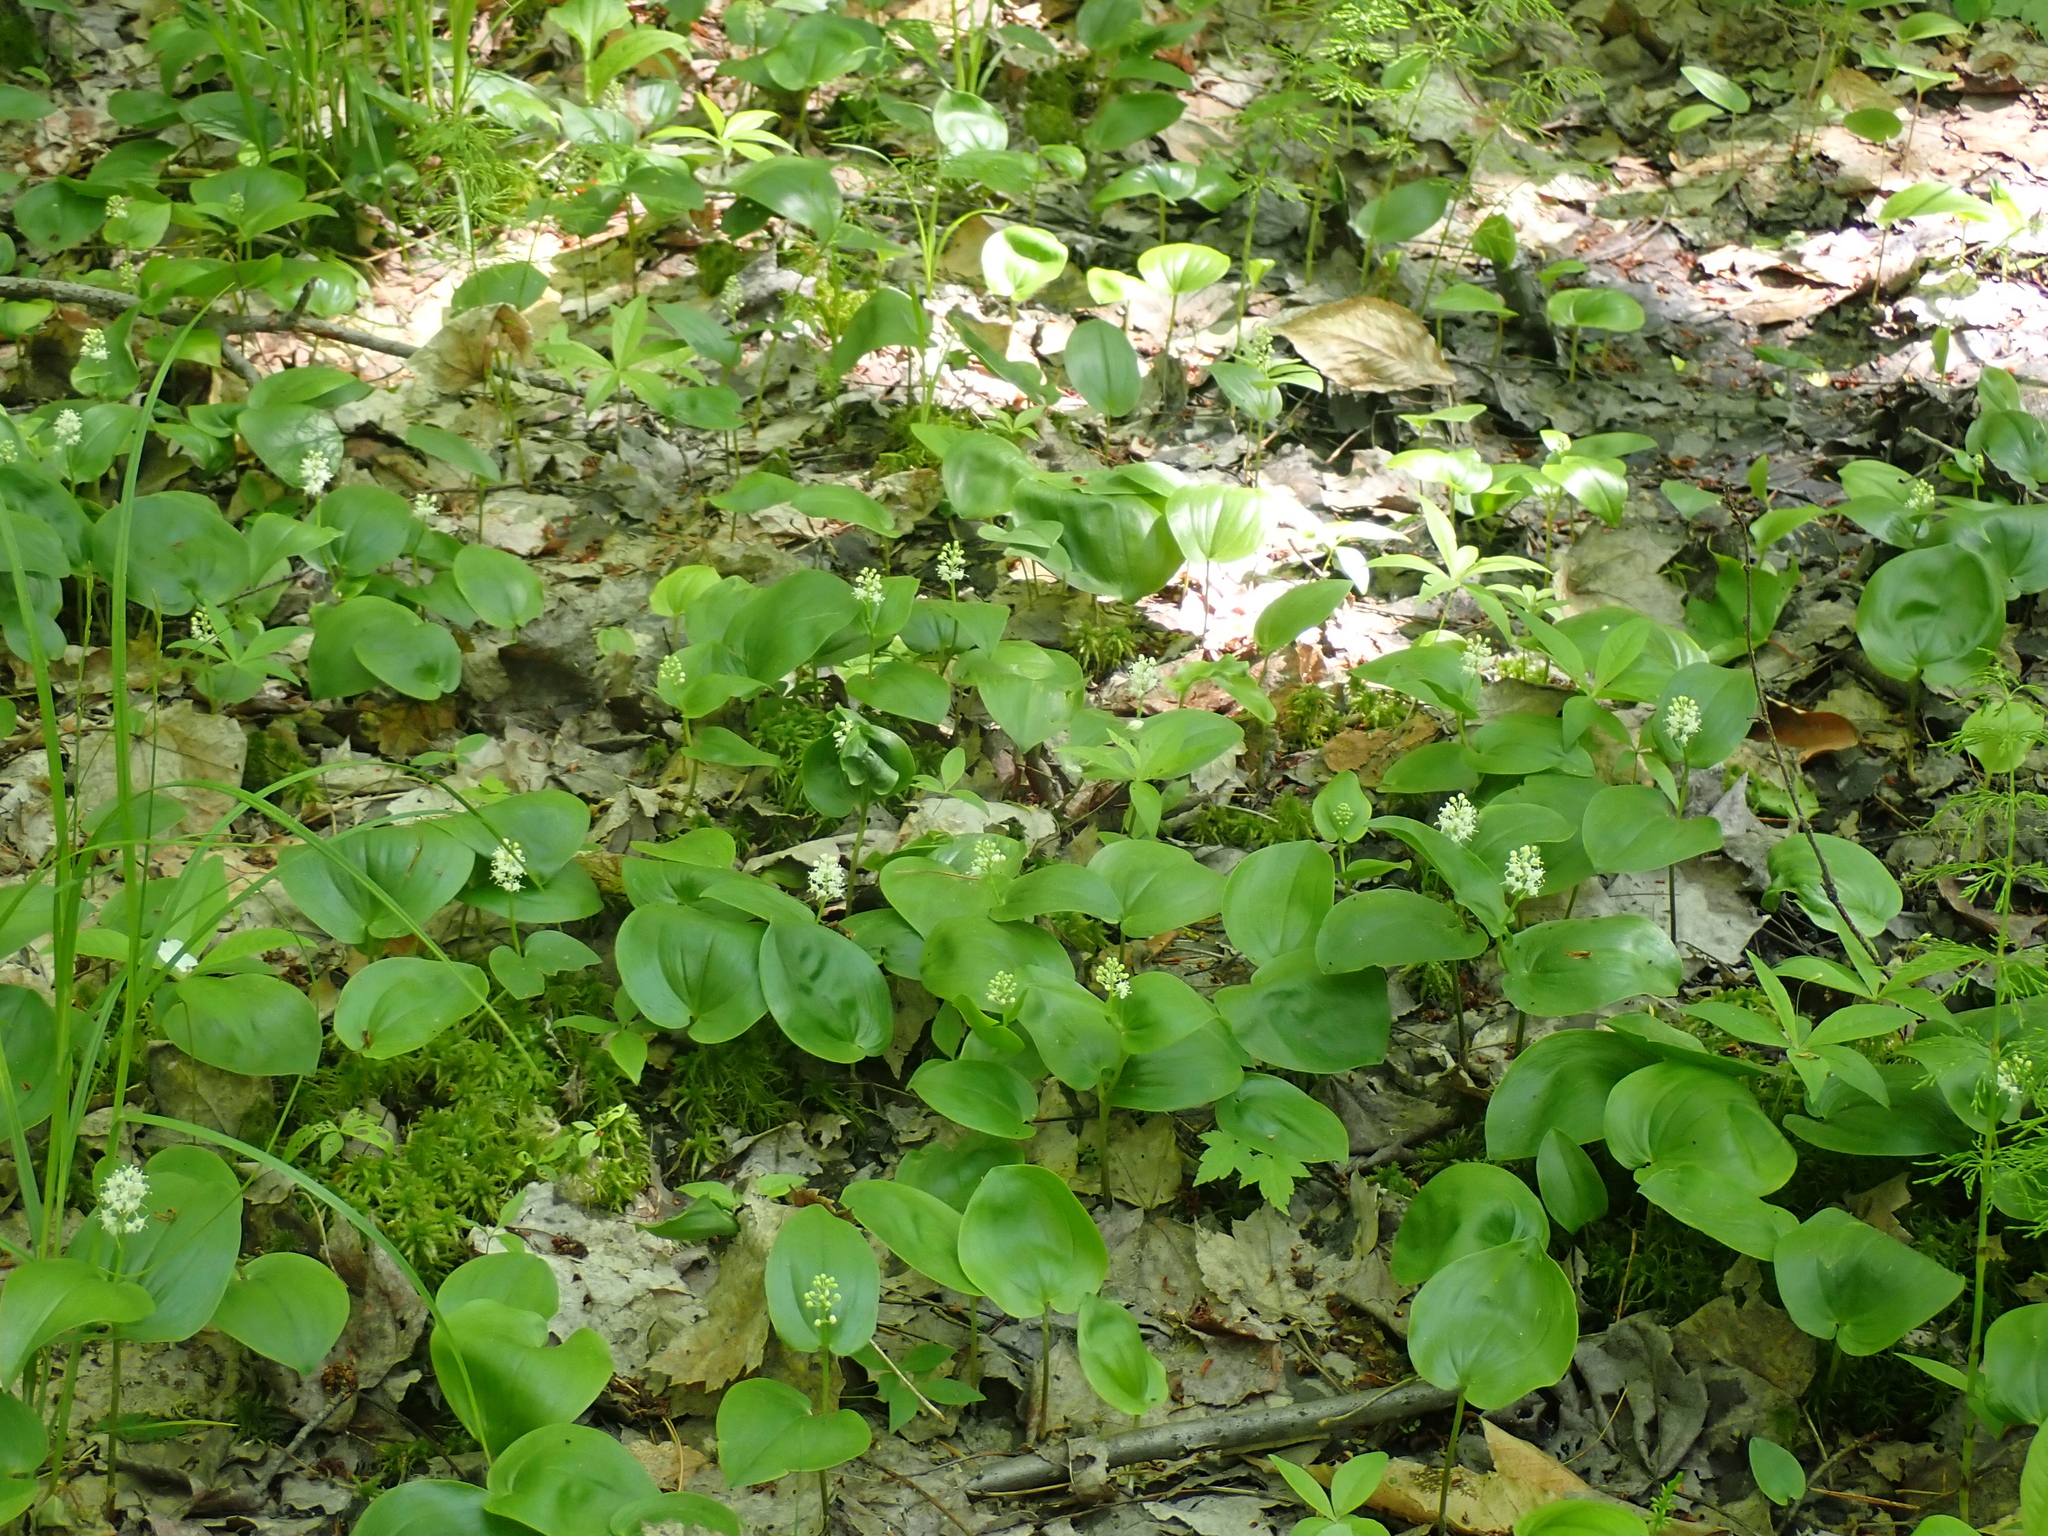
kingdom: Plantae
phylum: Tracheophyta
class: Liliopsida
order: Asparagales
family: Asparagaceae
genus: Maianthemum
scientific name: Maianthemum canadense
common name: False lily-of-the-valley
